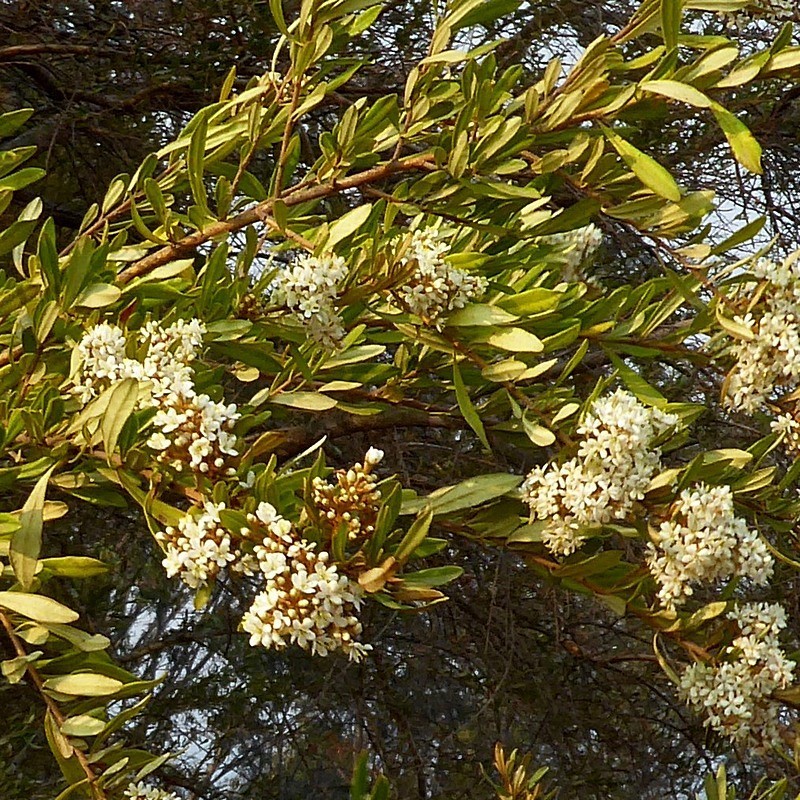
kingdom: Plantae
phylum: Tracheophyta
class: Magnoliopsida
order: Apiales
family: Pittosporaceae
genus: Bursaria
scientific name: Bursaria spinosa
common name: Australian blackthorn
